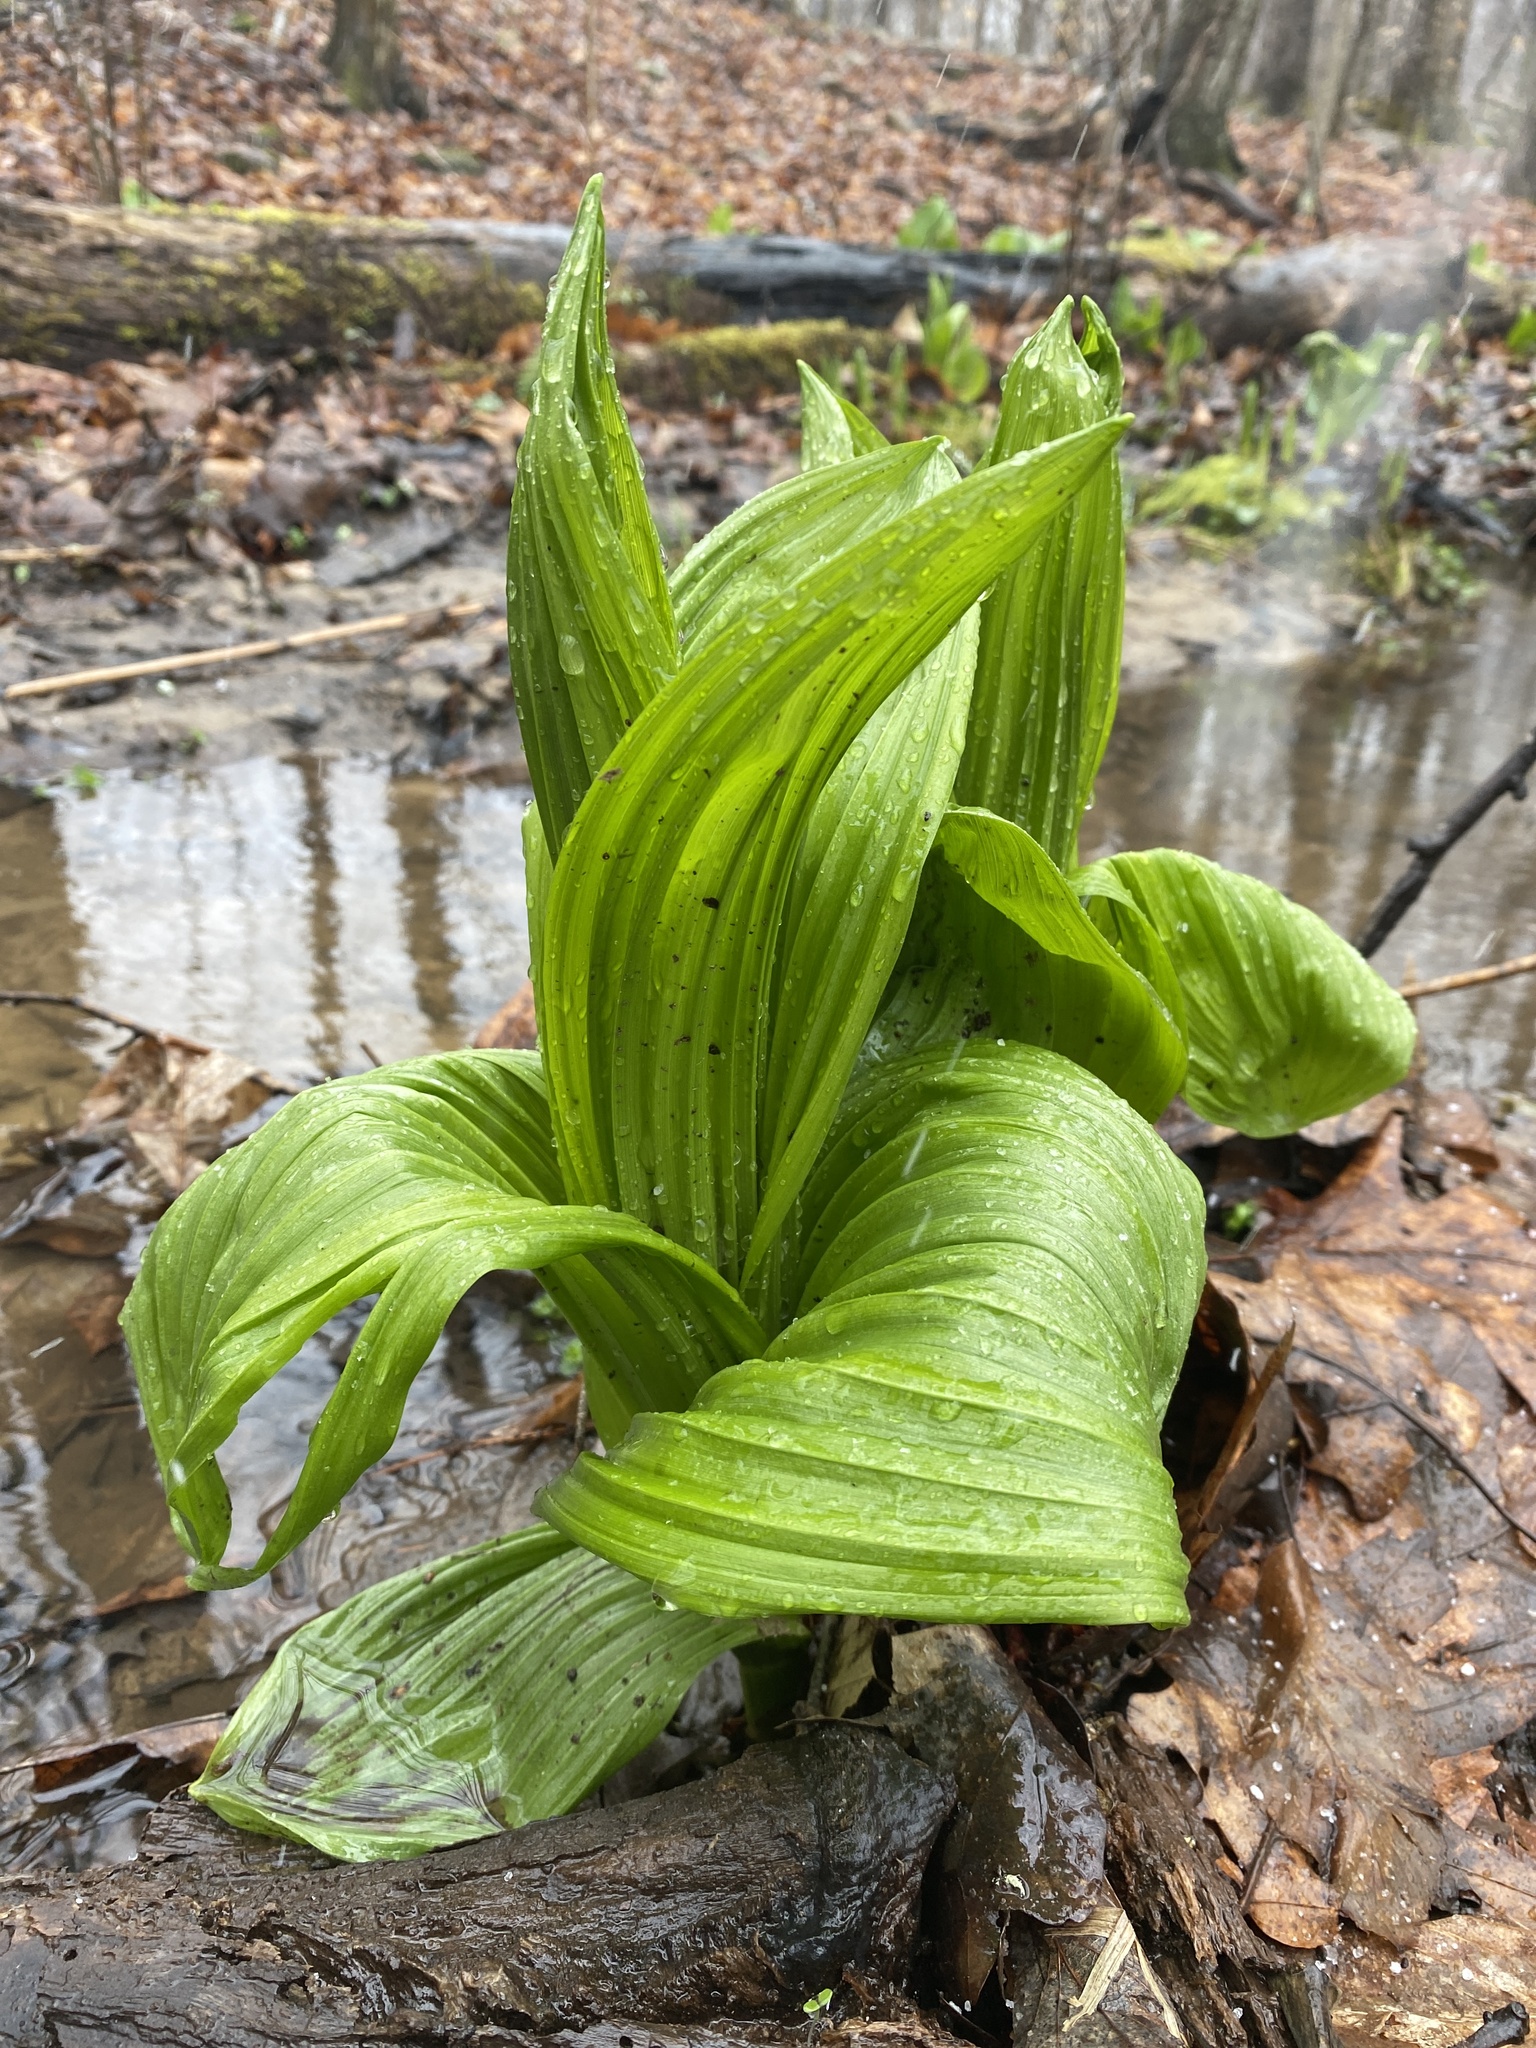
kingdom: Plantae
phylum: Tracheophyta
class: Liliopsida
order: Liliales
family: Melanthiaceae
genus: Veratrum
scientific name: Veratrum viride
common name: American false hellebore
